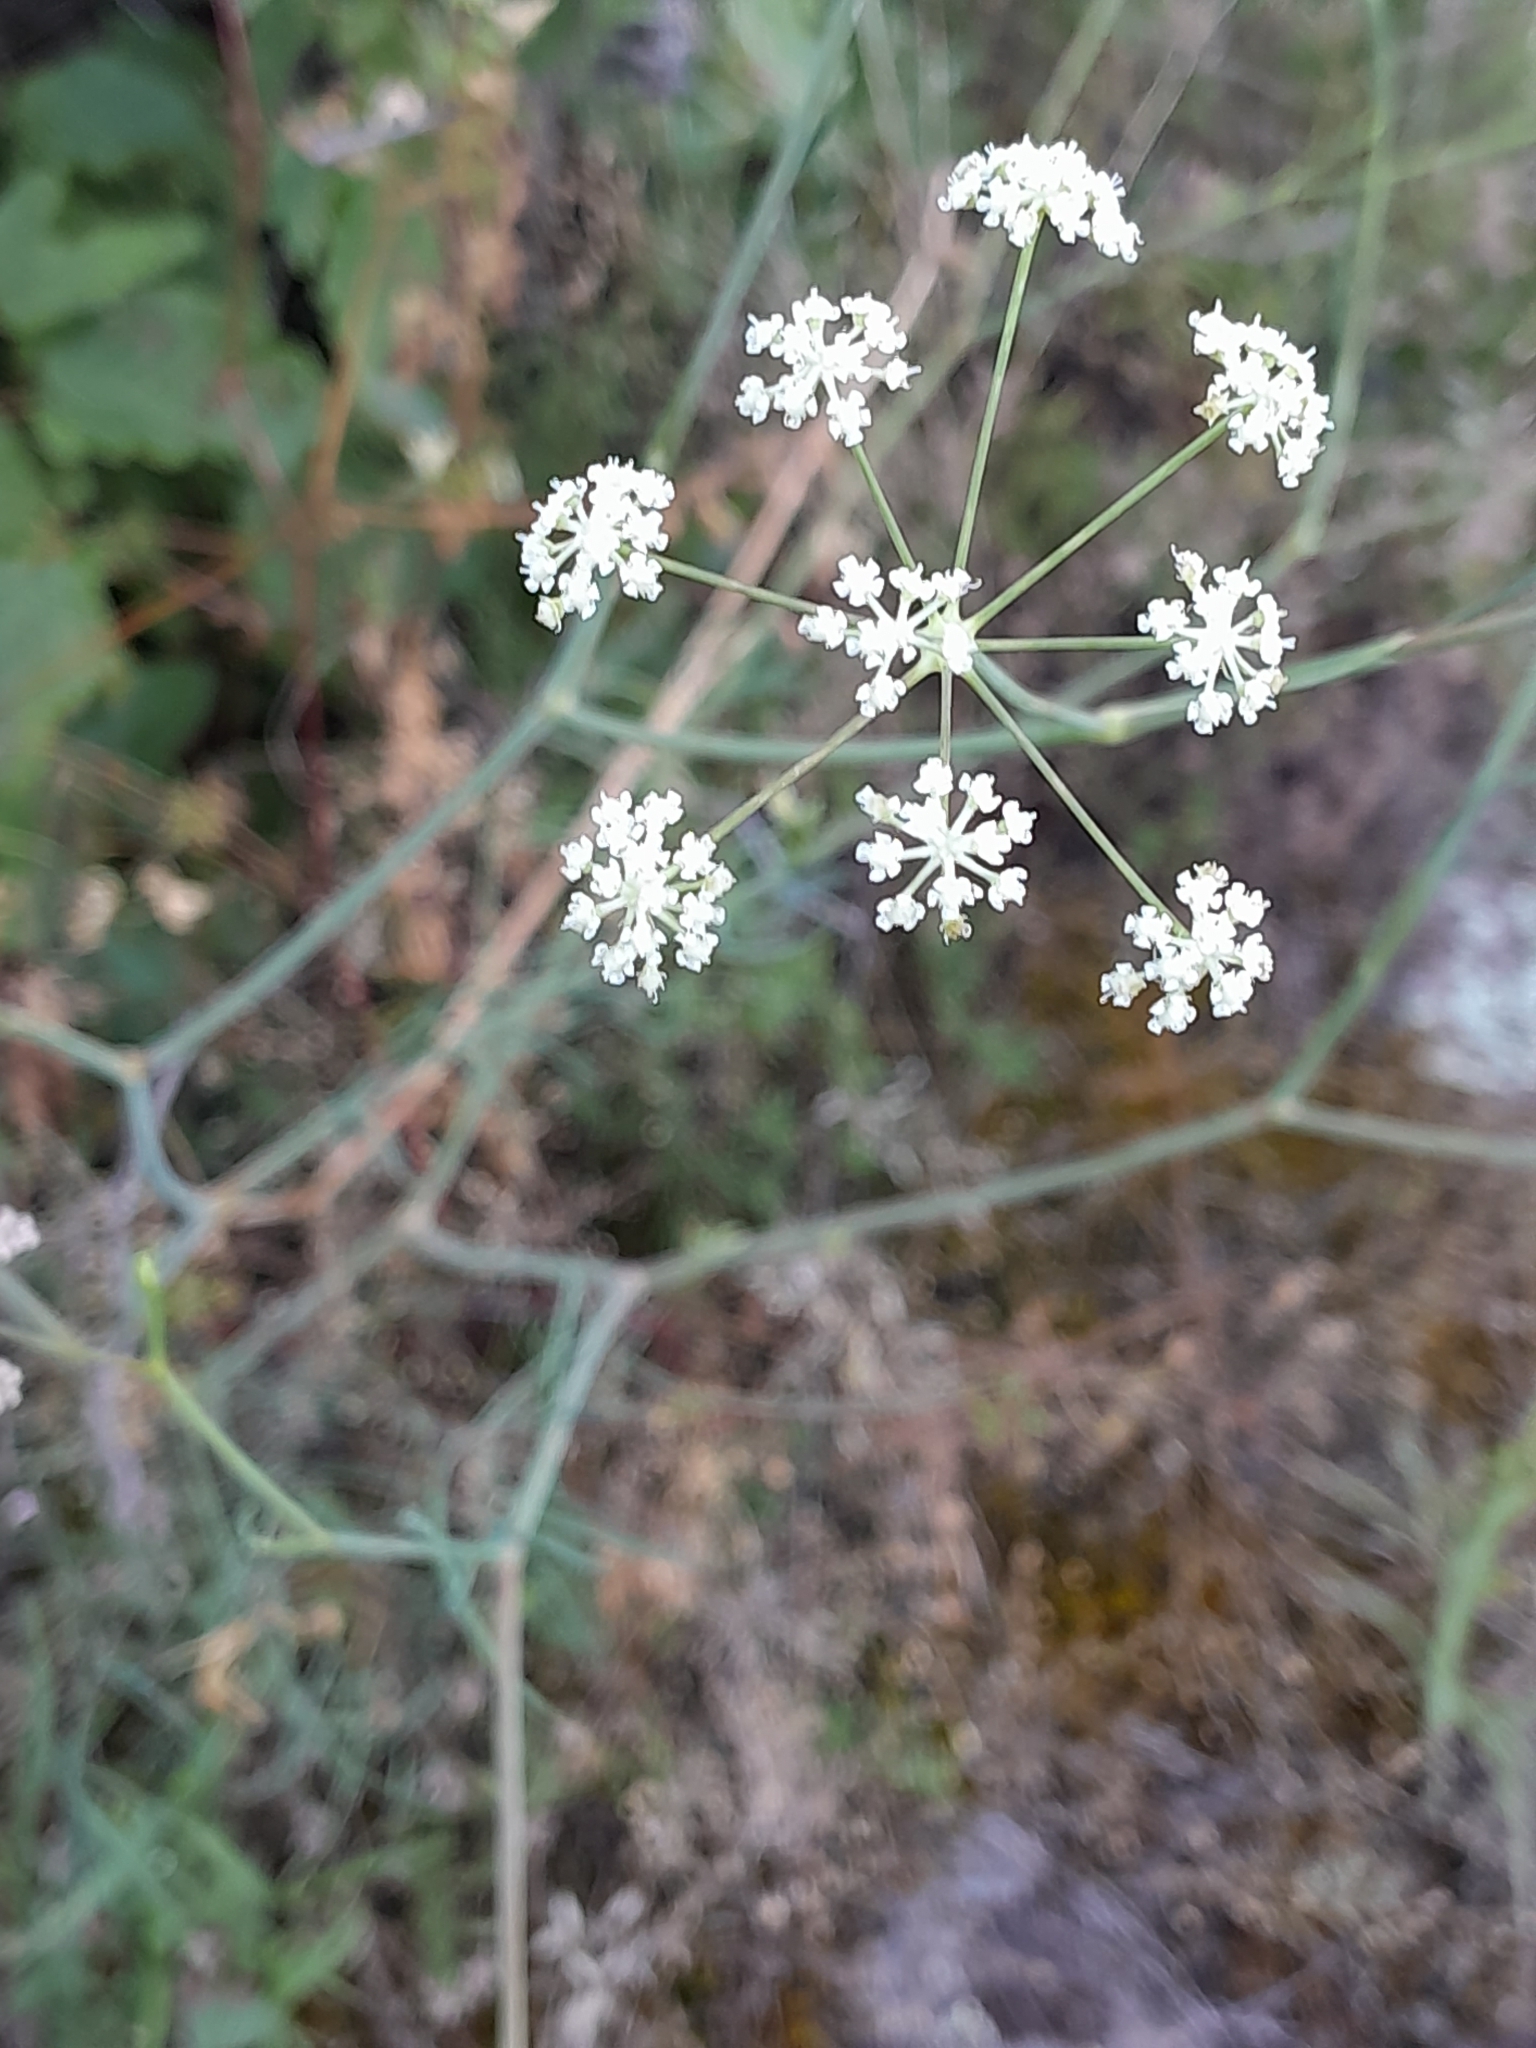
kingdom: Plantae
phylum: Tracheophyta
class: Magnoliopsida
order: Apiales
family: Apiaceae
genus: Seseli
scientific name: Seseli osseum
